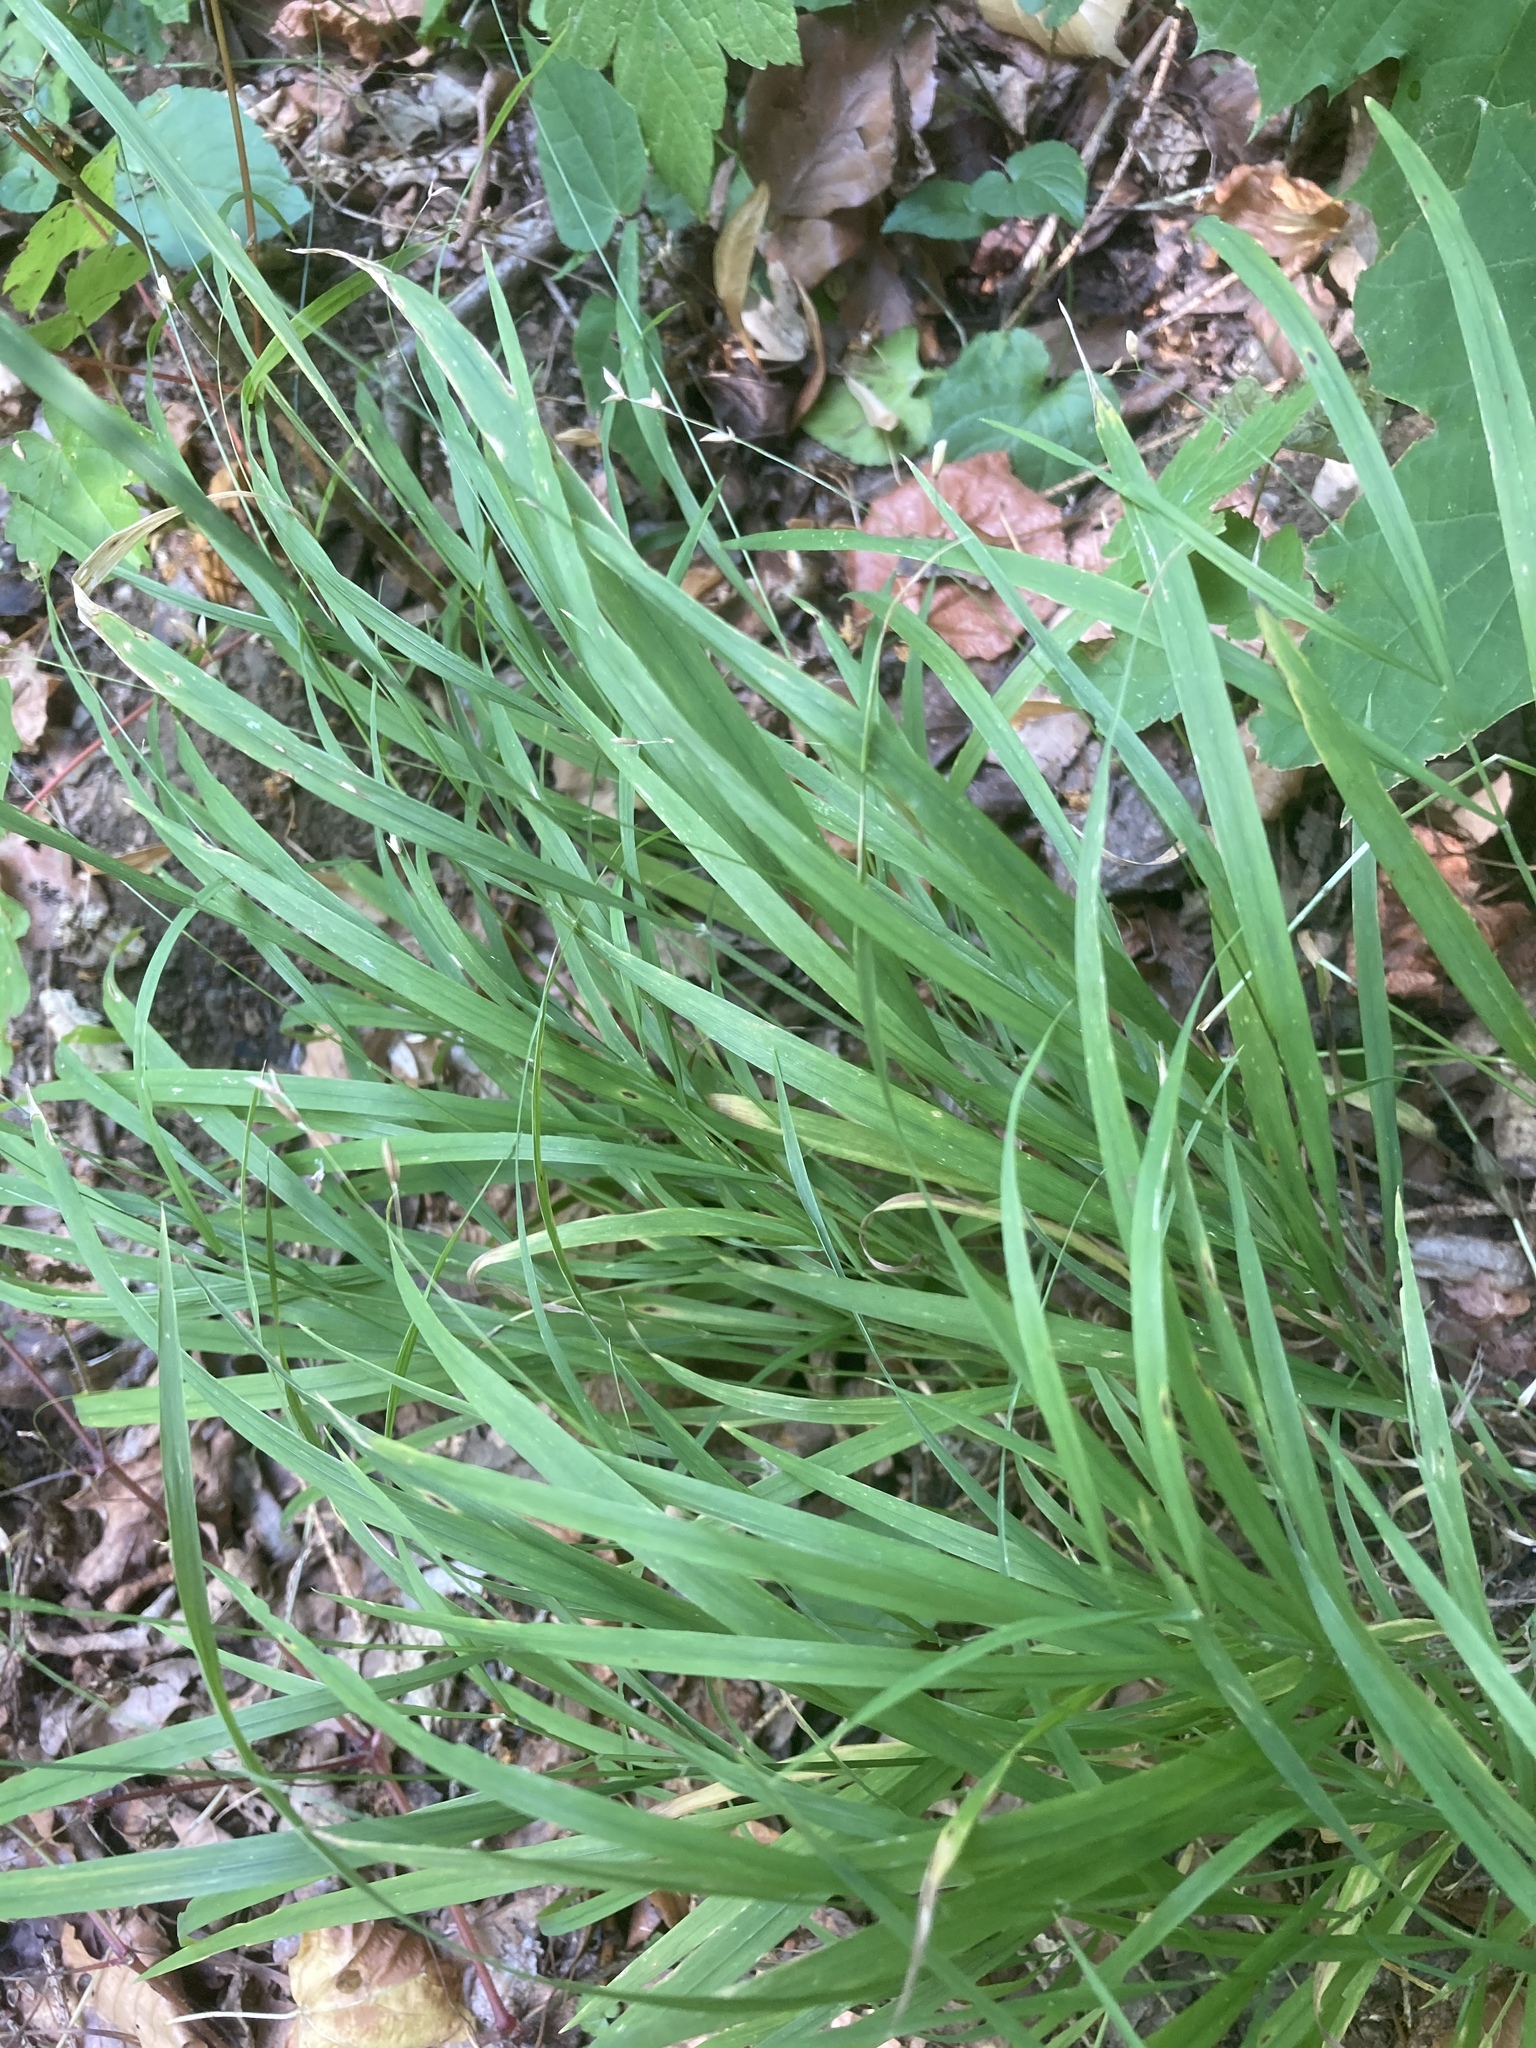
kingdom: Plantae
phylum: Tracheophyta
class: Liliopsida
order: Poales
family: Poaceae
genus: Melica
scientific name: Melica uniflora
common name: Wood melick
